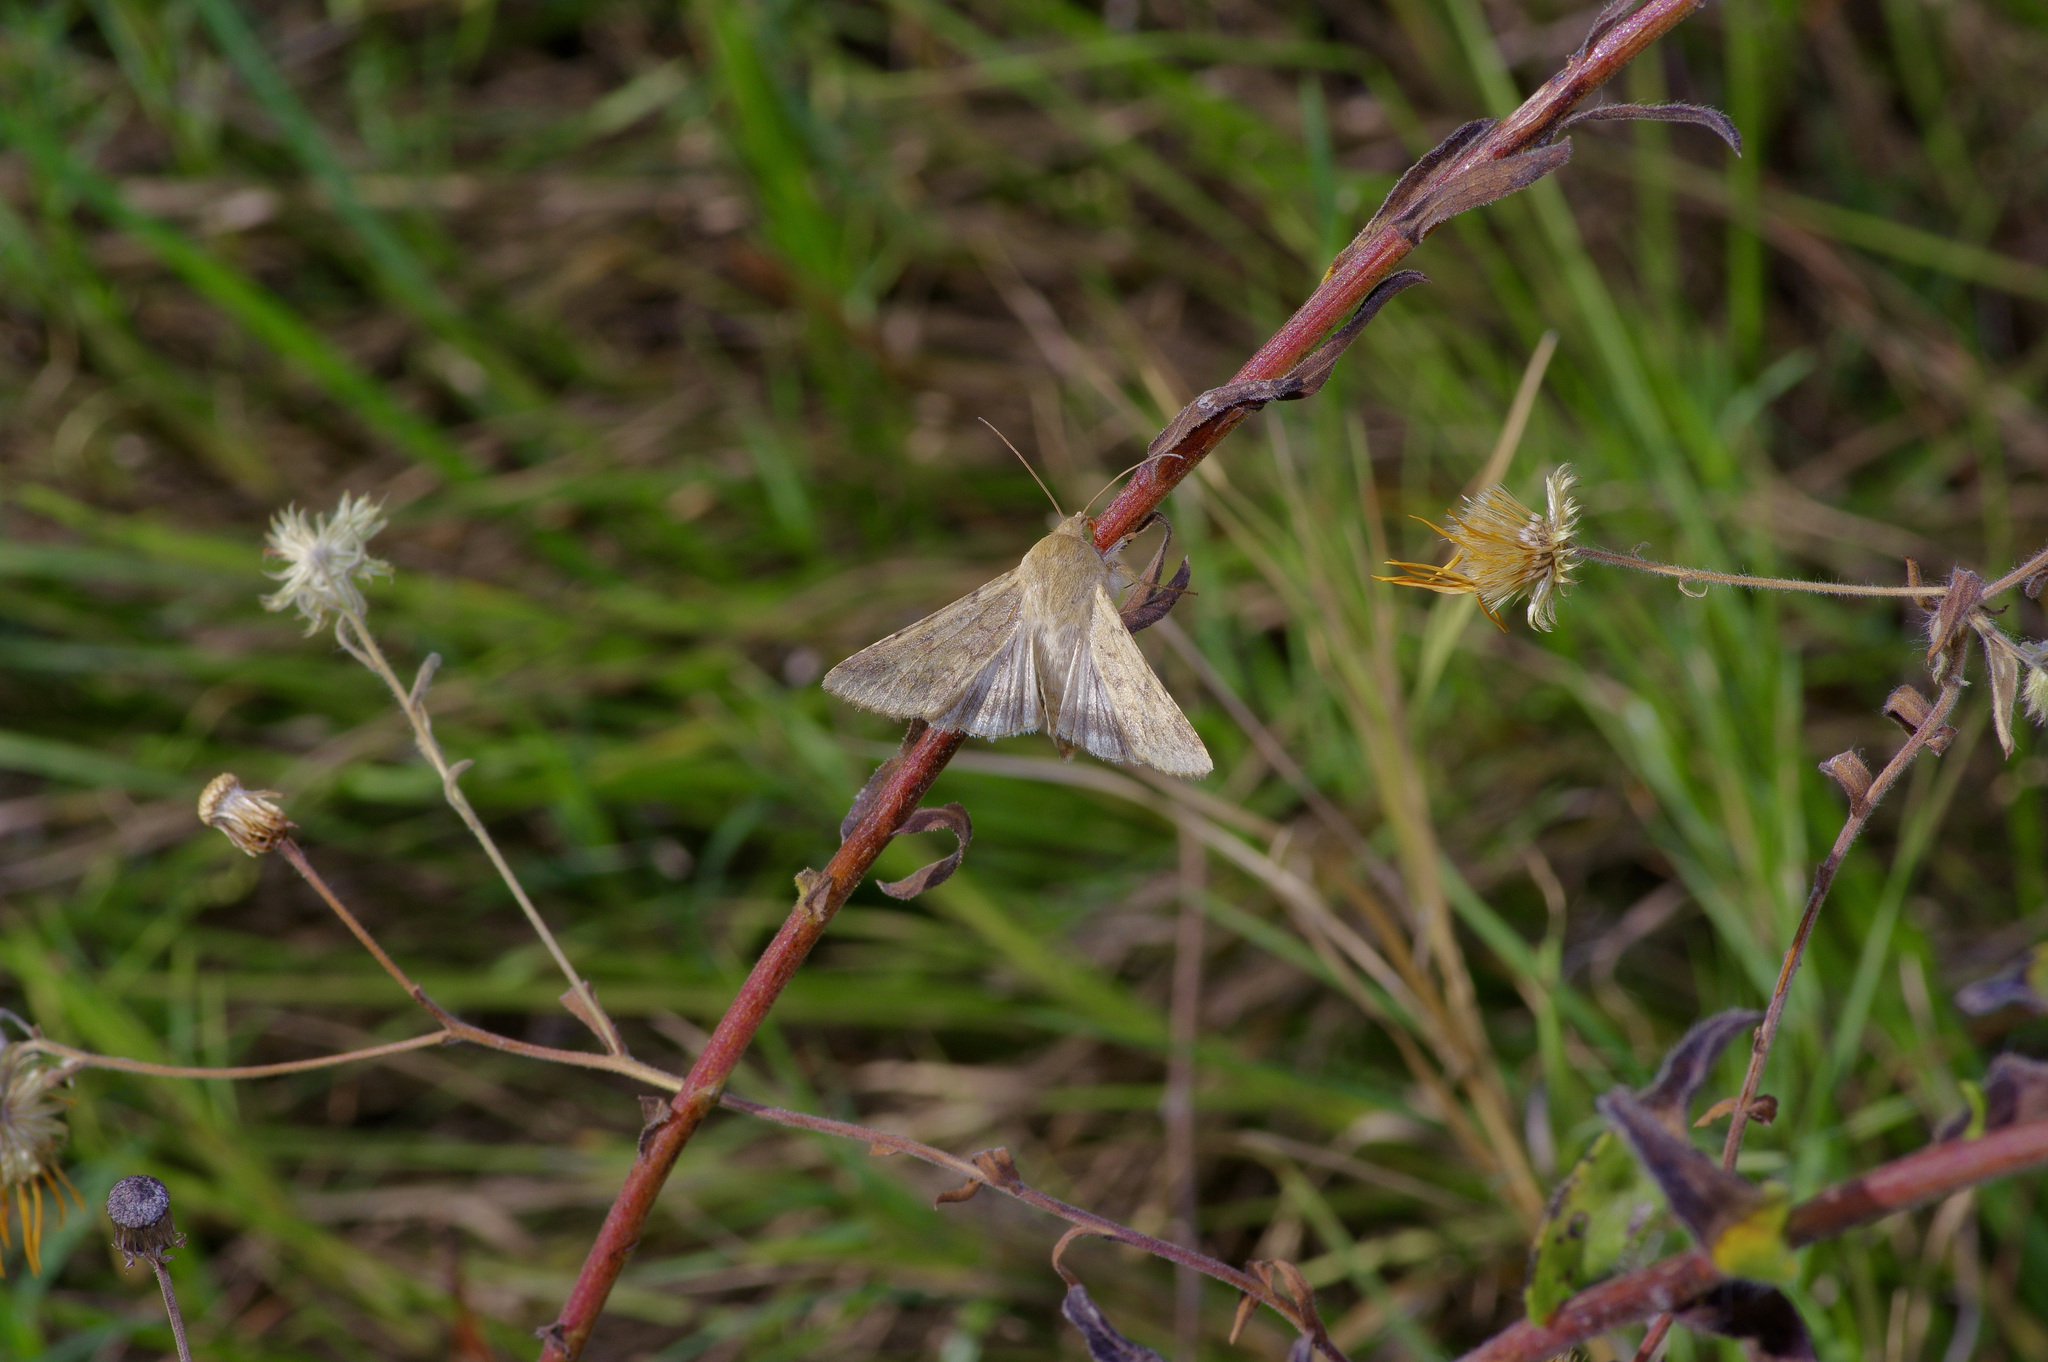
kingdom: Animalia
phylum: Arthropoda
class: Insecta
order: Lepidoptera
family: Noctuidae
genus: Helicoverpa
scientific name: Helicoverpa zea
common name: Bollworm
